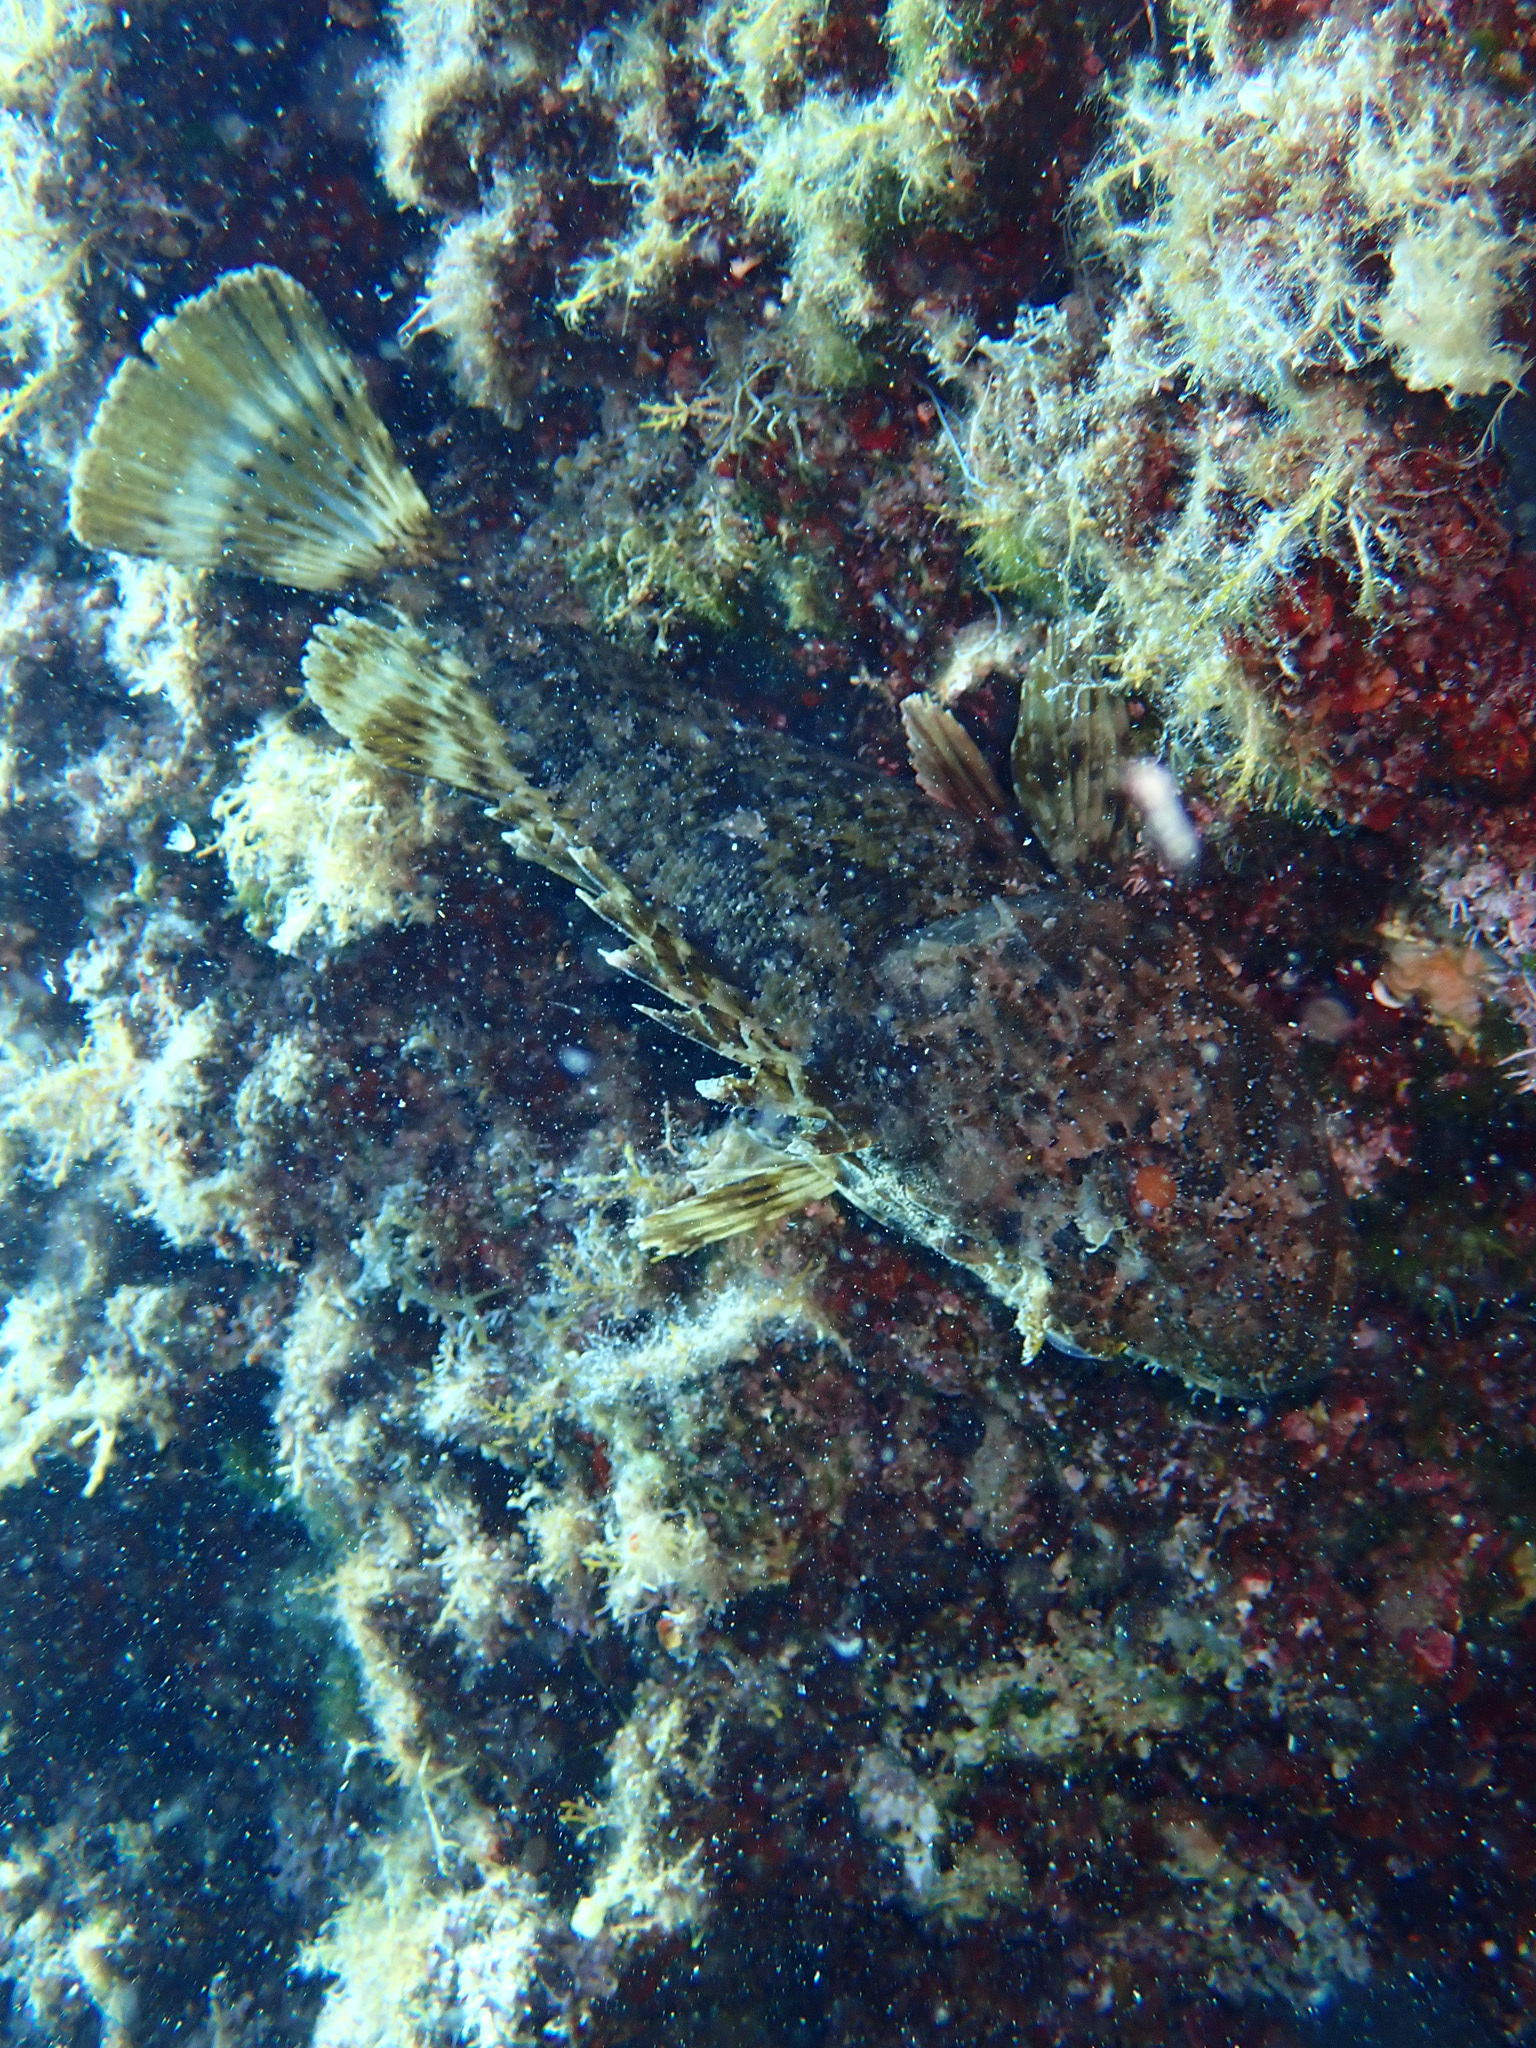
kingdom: Animalia
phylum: Chordata
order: Scorpaeniformes
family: Scorpaenidae
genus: Scorpaena
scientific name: Scorpaena porcus
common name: Black scorpionfish
